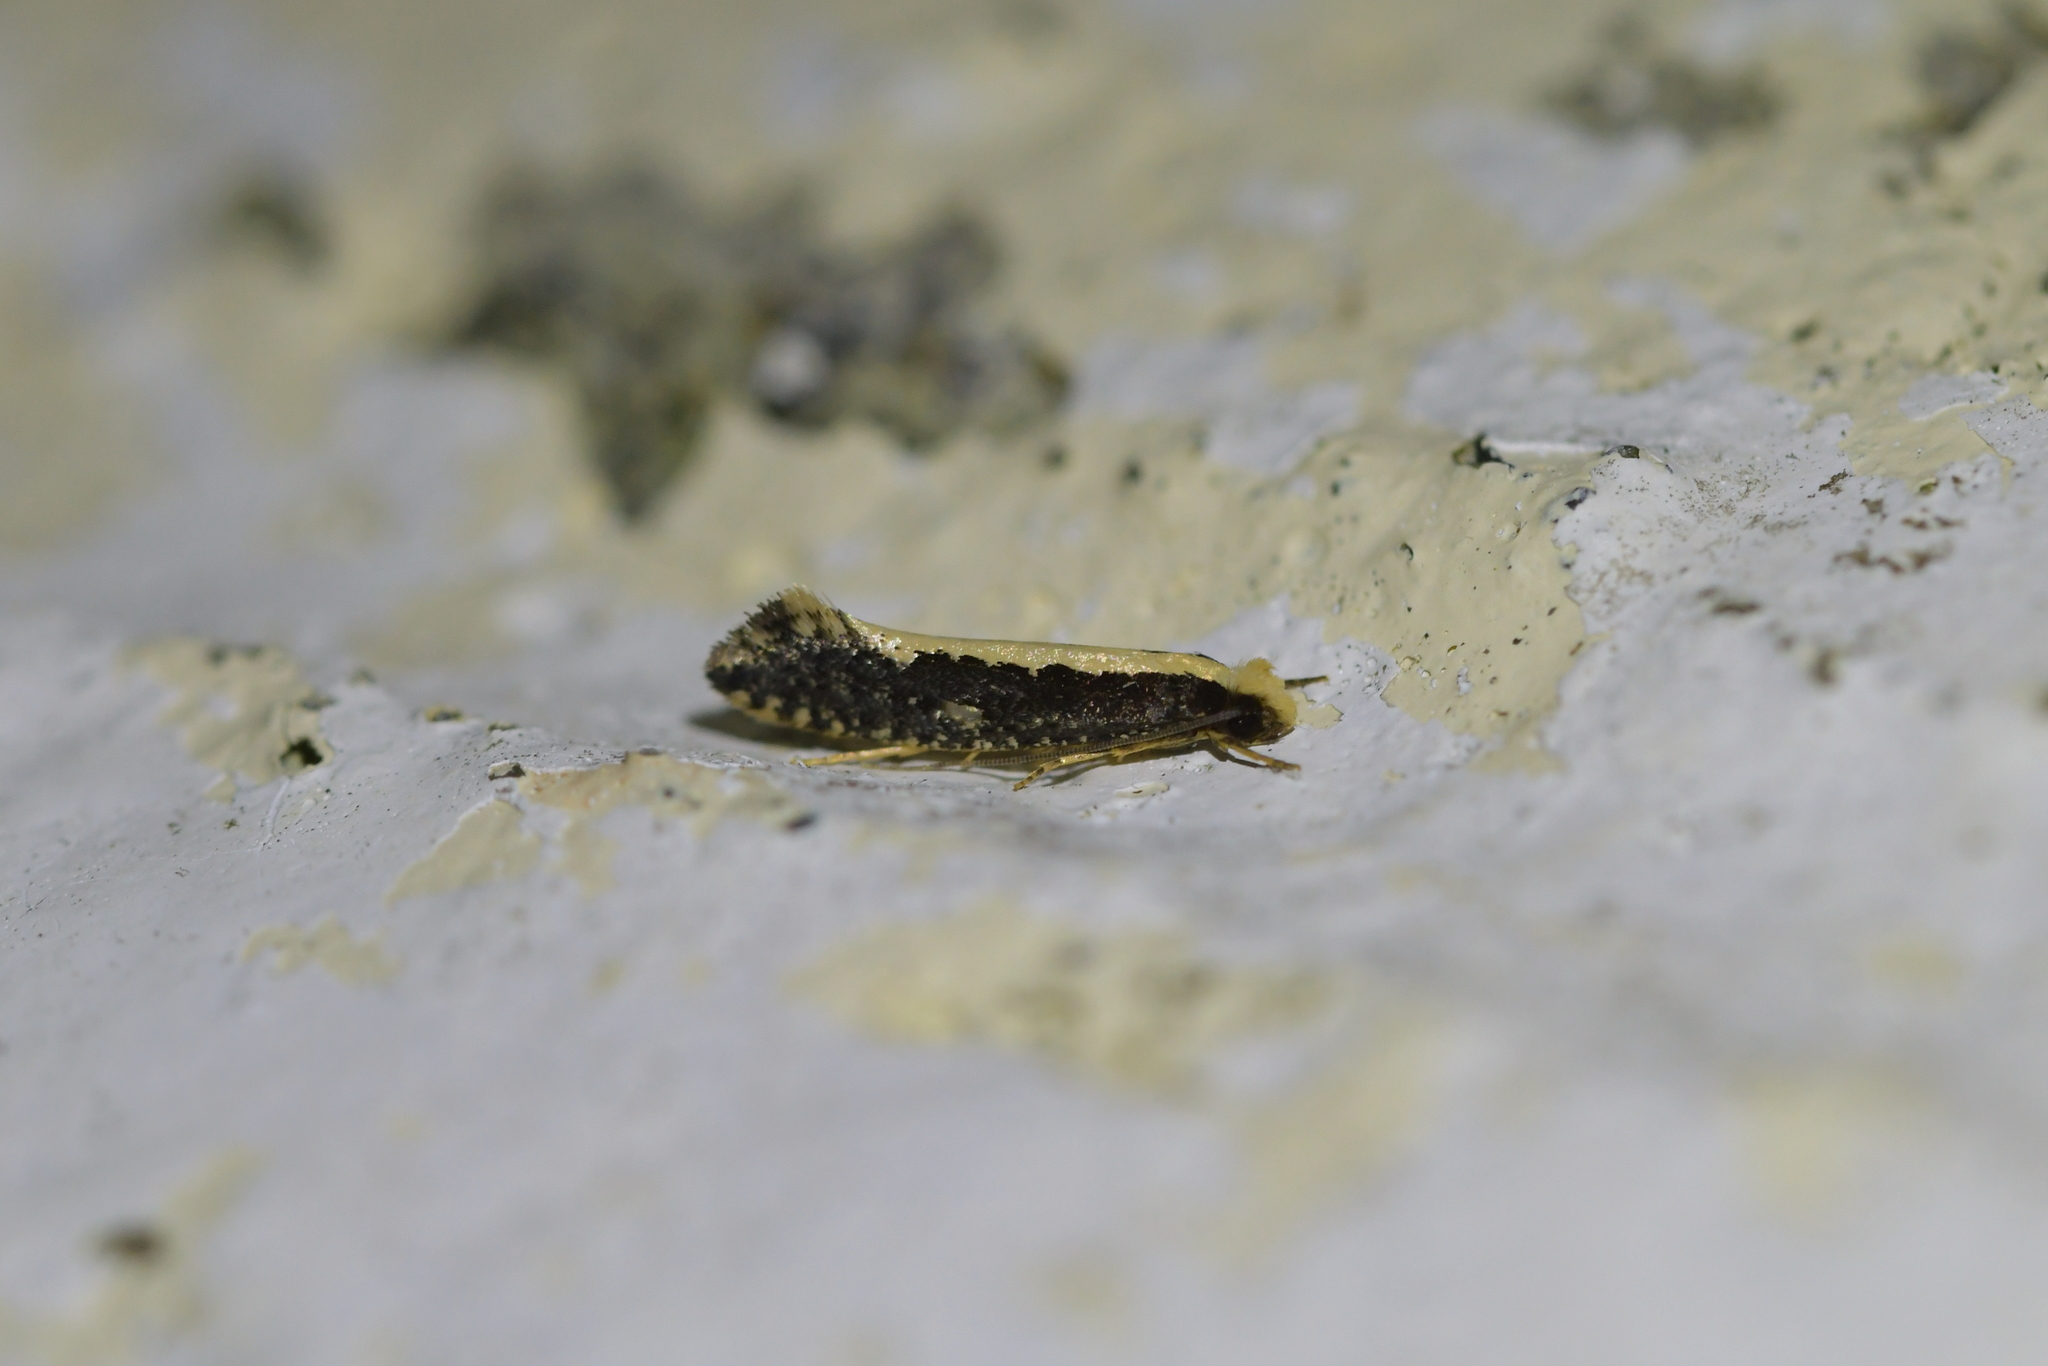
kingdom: Animalia
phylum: Arthropoda
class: Insecta
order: Lepidoptera
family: Tineidae
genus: Monopis
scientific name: Monopis ethelella
